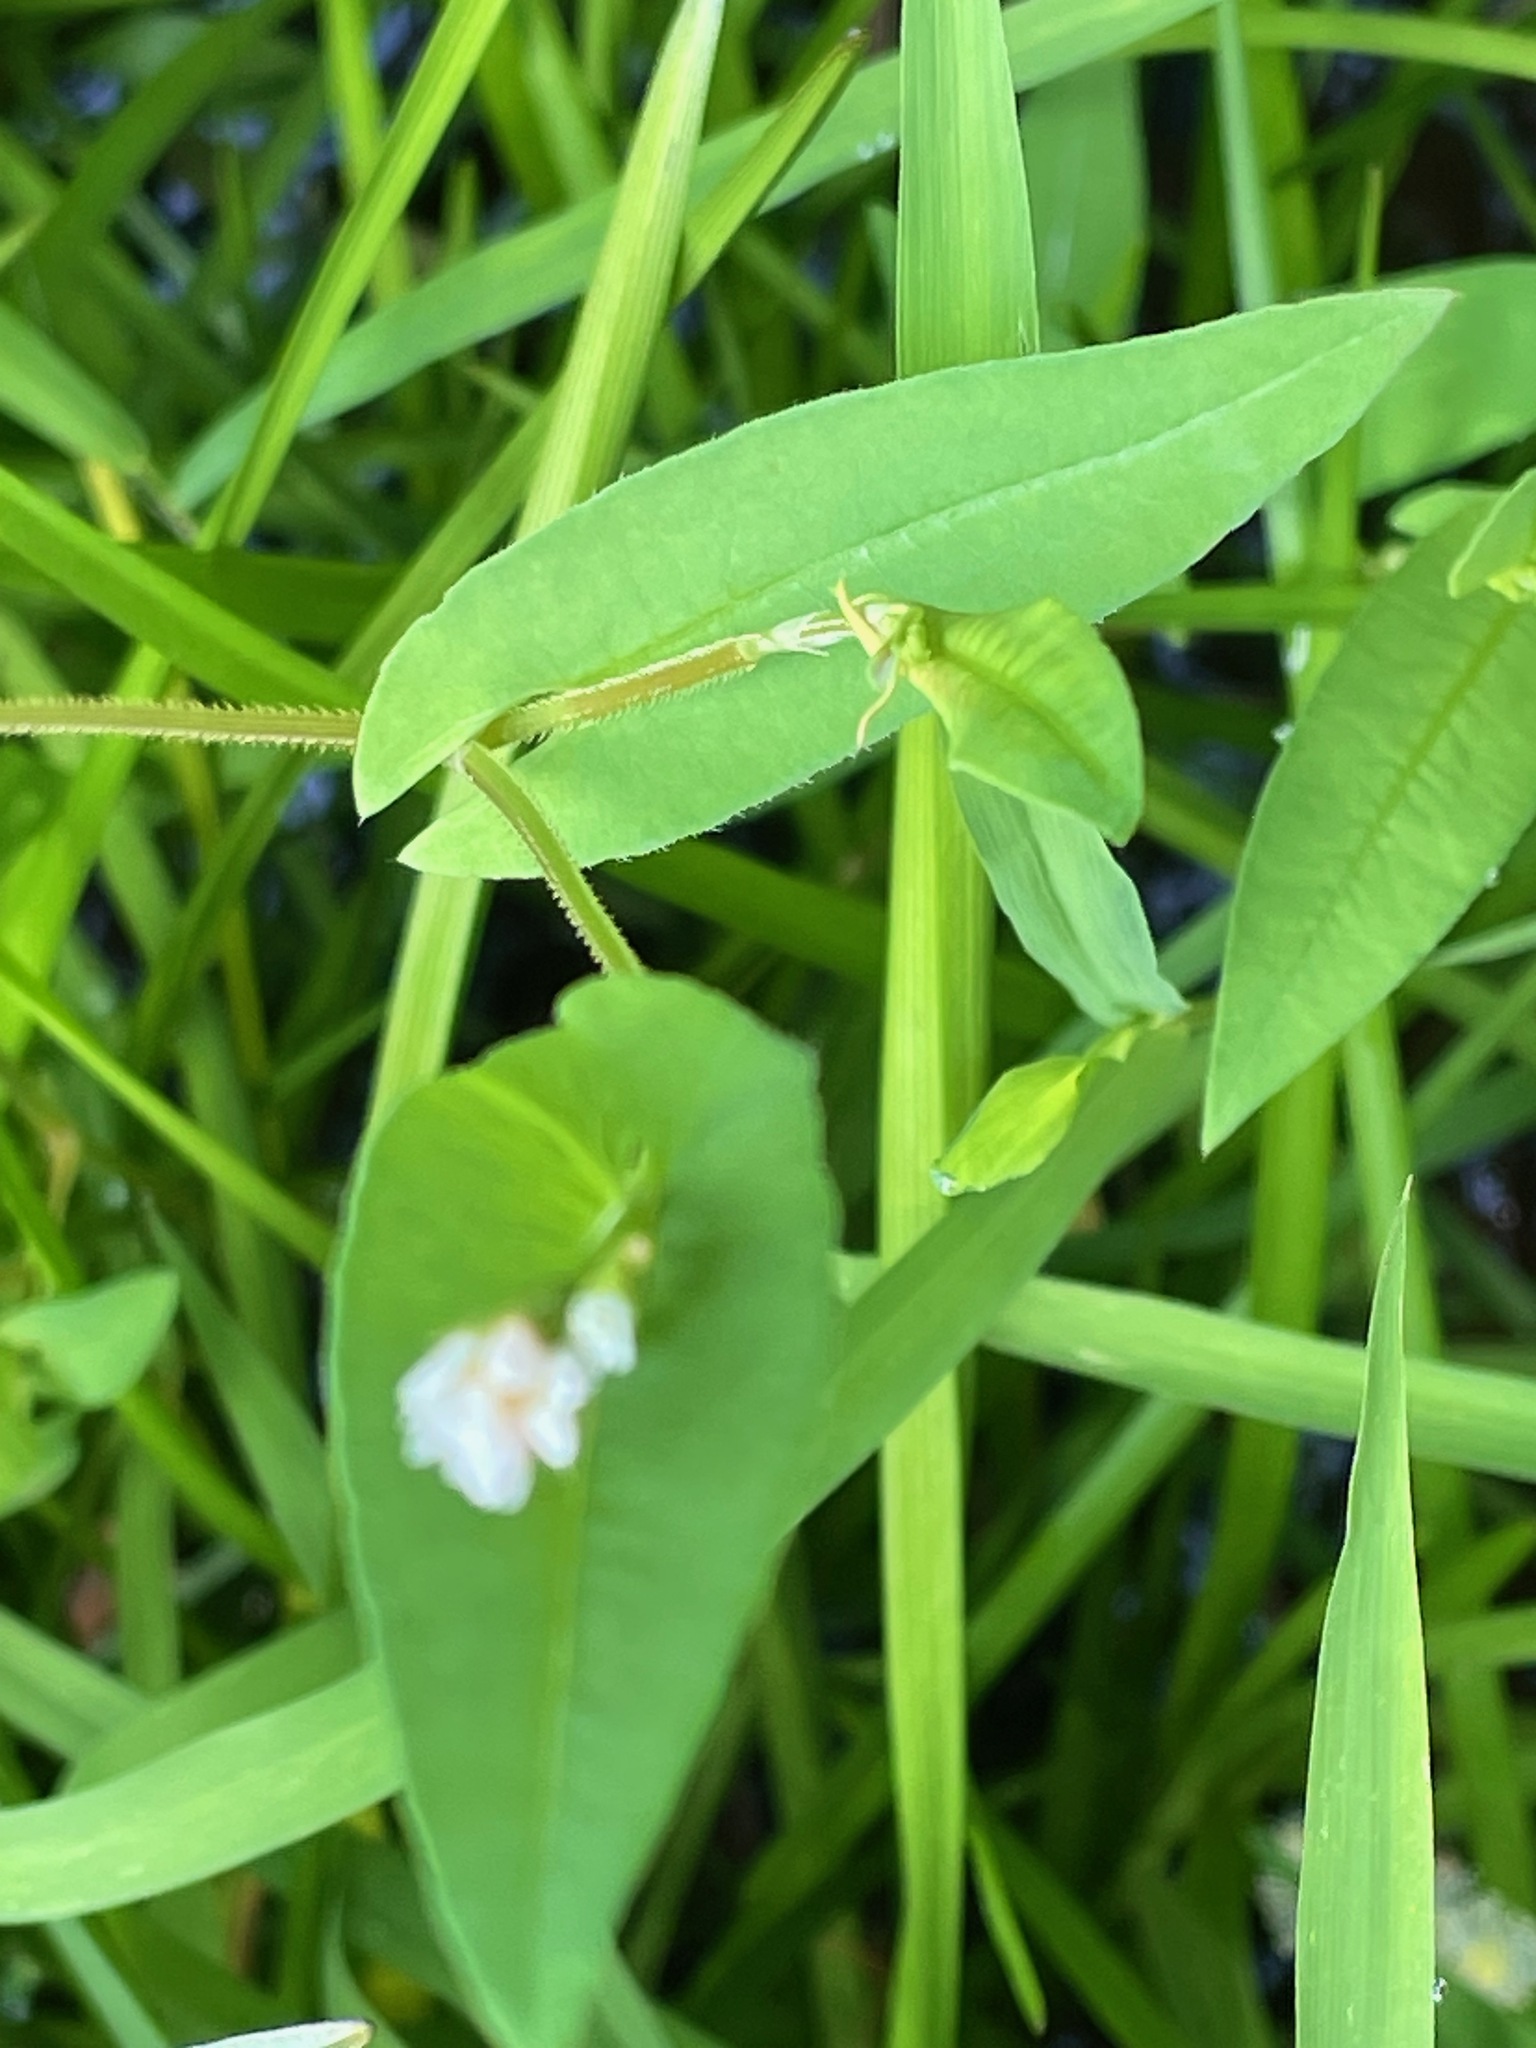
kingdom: Plantae
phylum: Tracheophyta
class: Magnoliopsida
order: Caryophyllales
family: Polygonaceae
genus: Persicaria
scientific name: Persicaria sagittata
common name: American tearthumb
